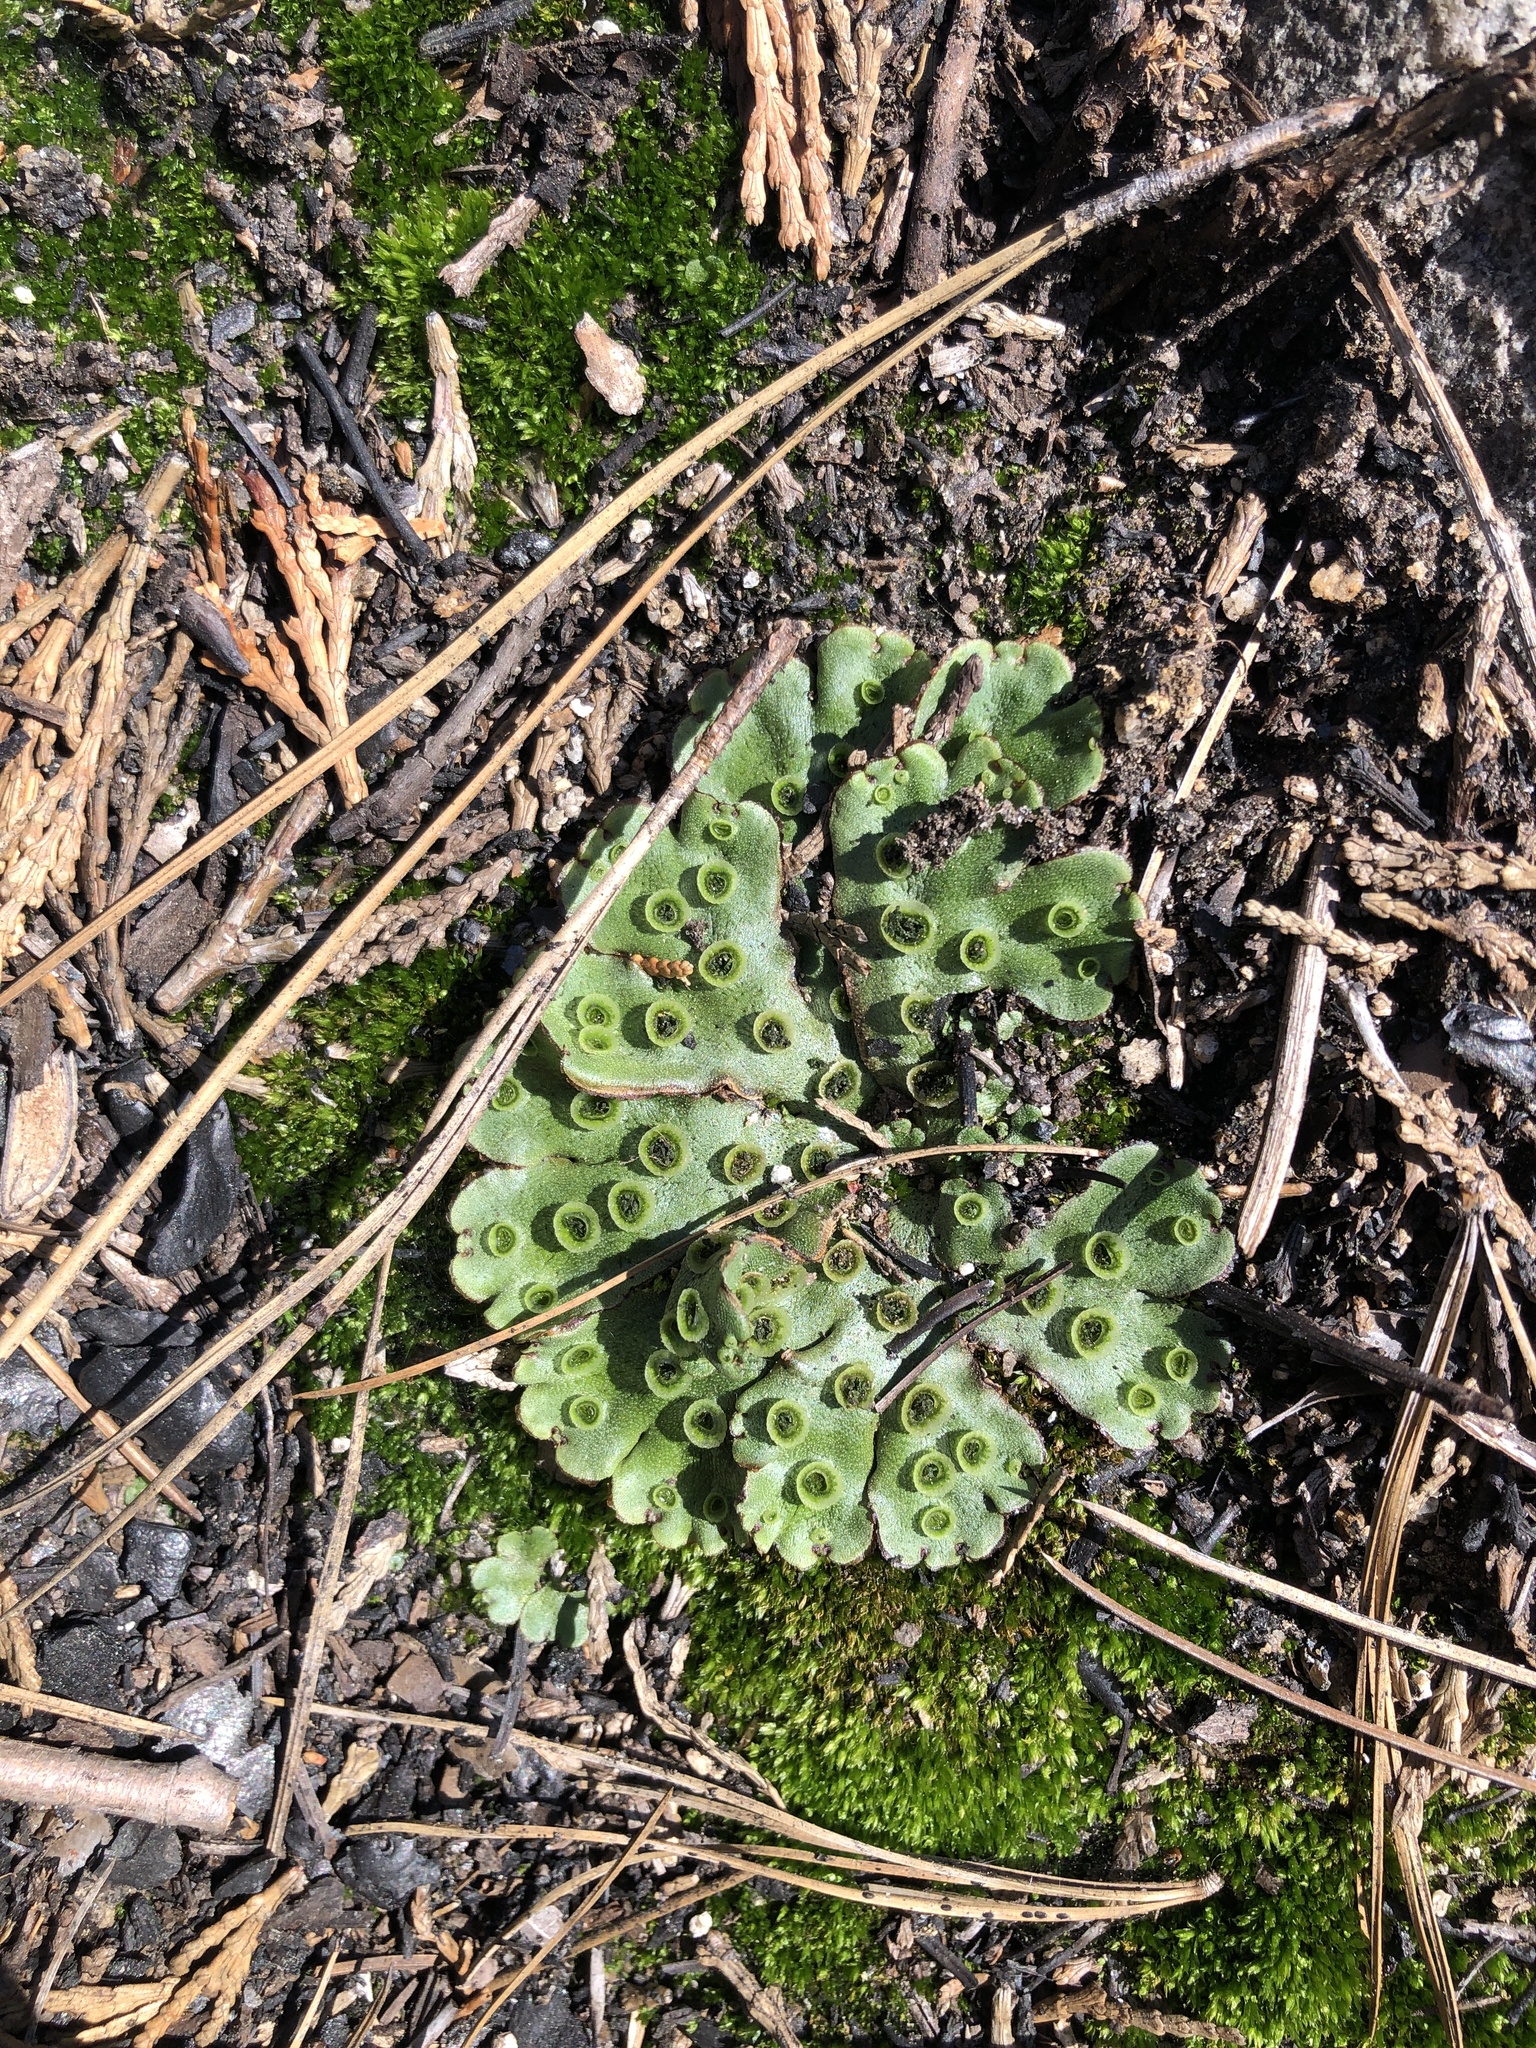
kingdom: Plantae
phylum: Marchantiophyta
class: Marchantiopsida
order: Marchantiales
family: Marchantiaceae
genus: Marchantia
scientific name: Marchantia polymorpha
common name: Common liverwort
